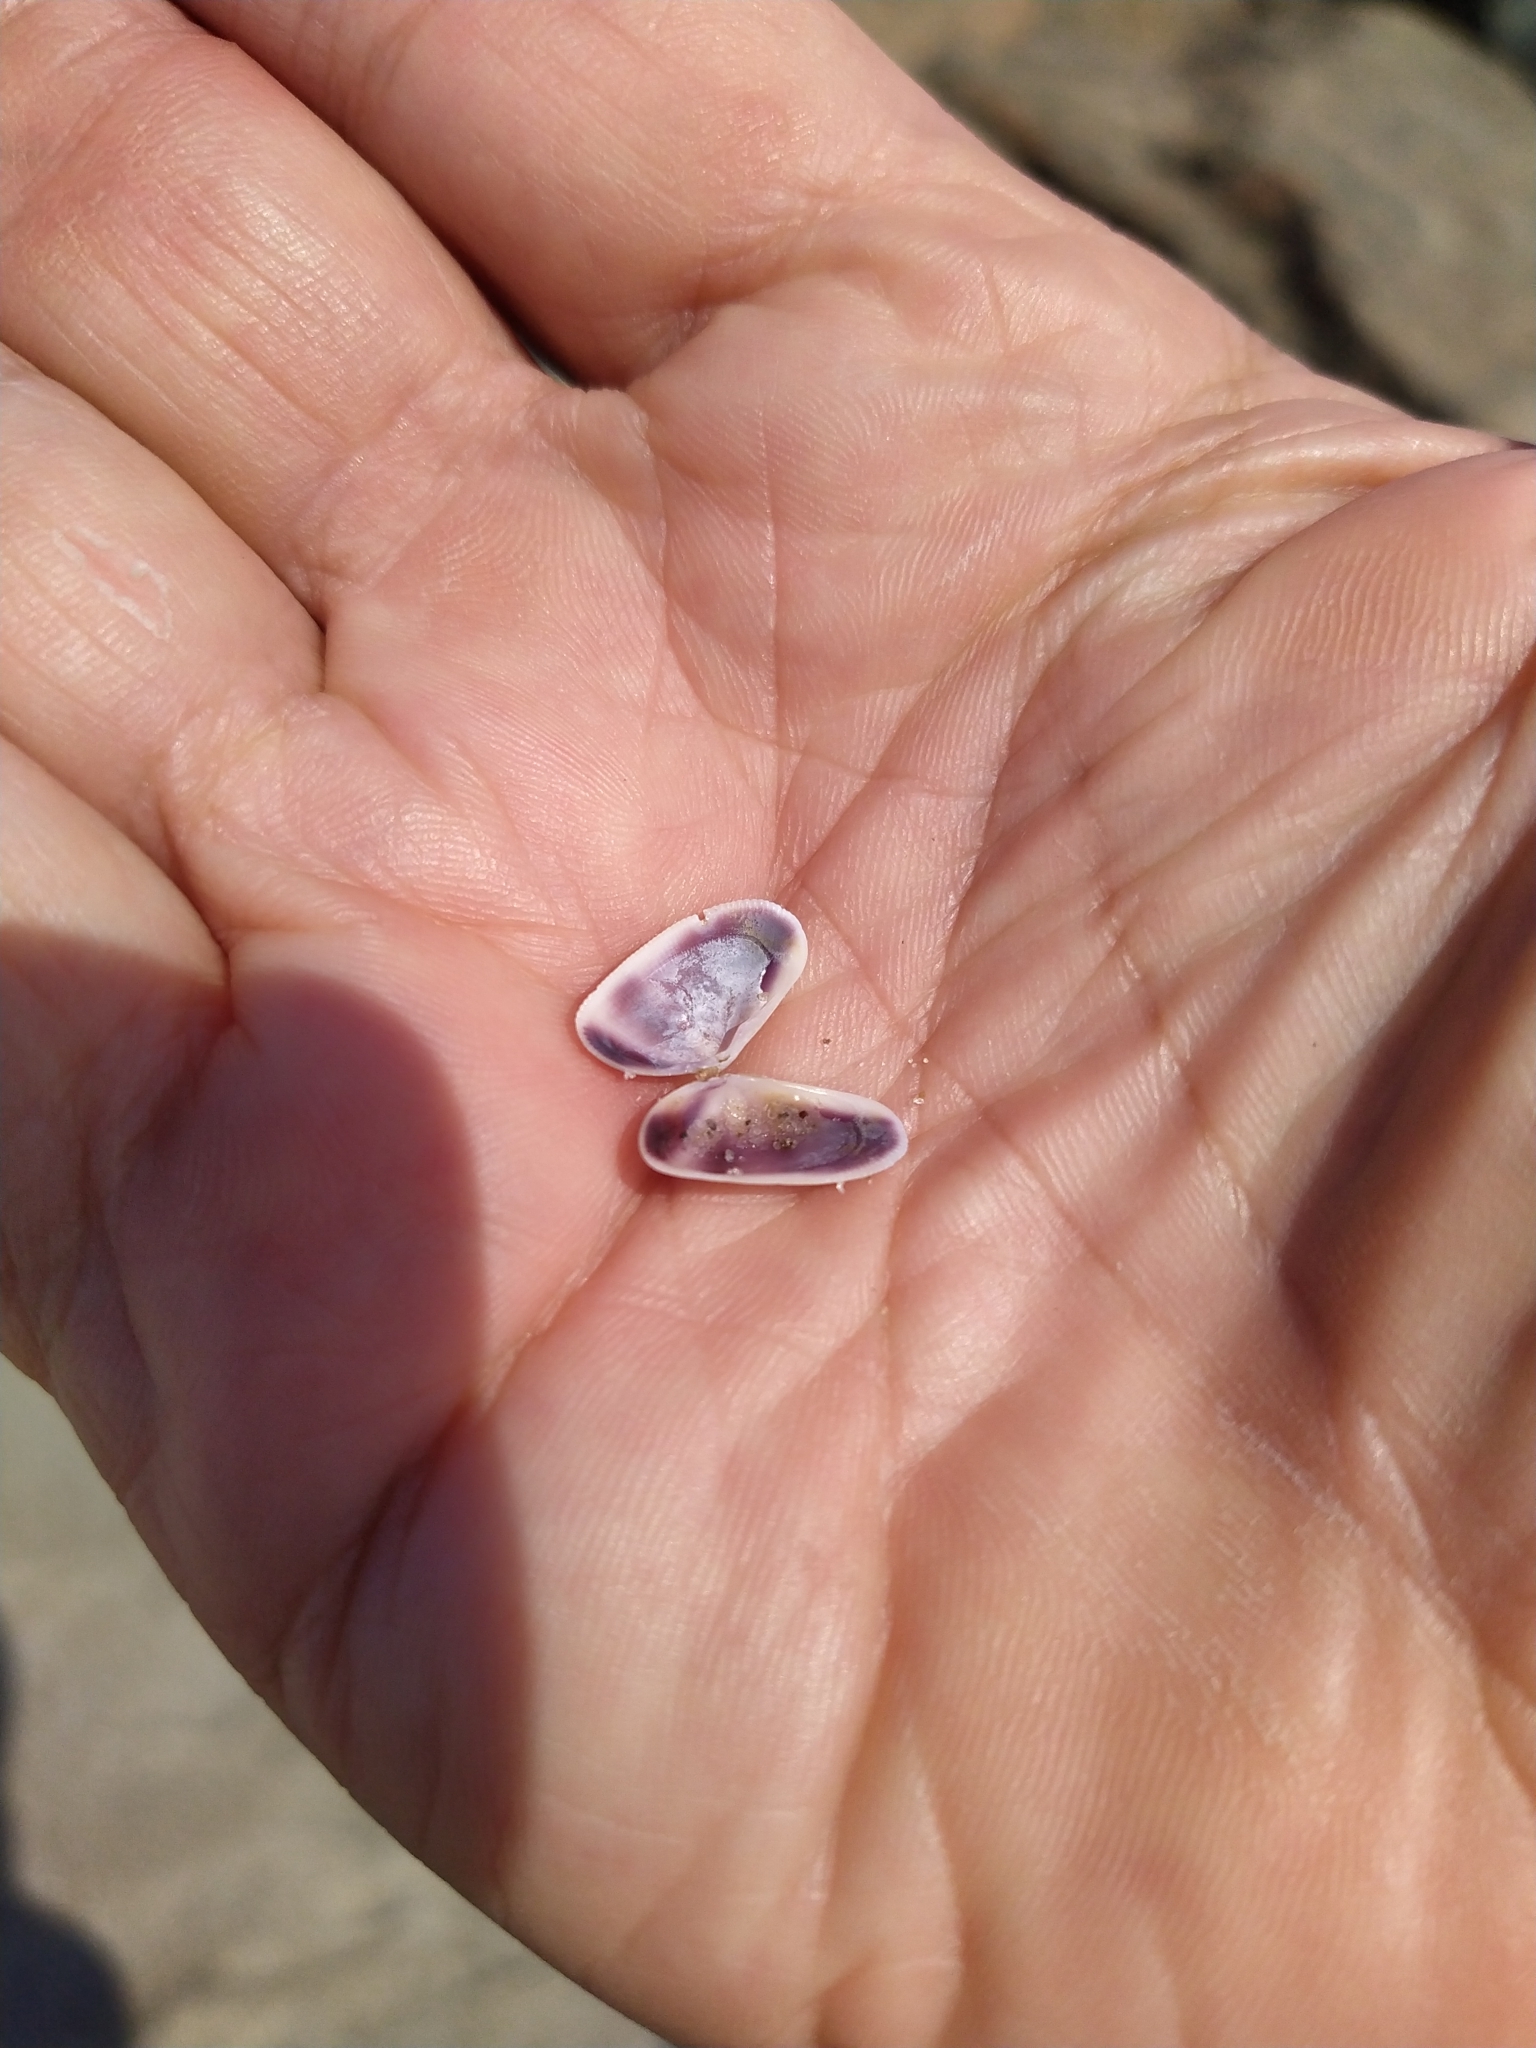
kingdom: Animalia
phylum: Mollusca
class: Bivalvia
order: Cardiida
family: Donacidae
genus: Donax
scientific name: Donax fossor
